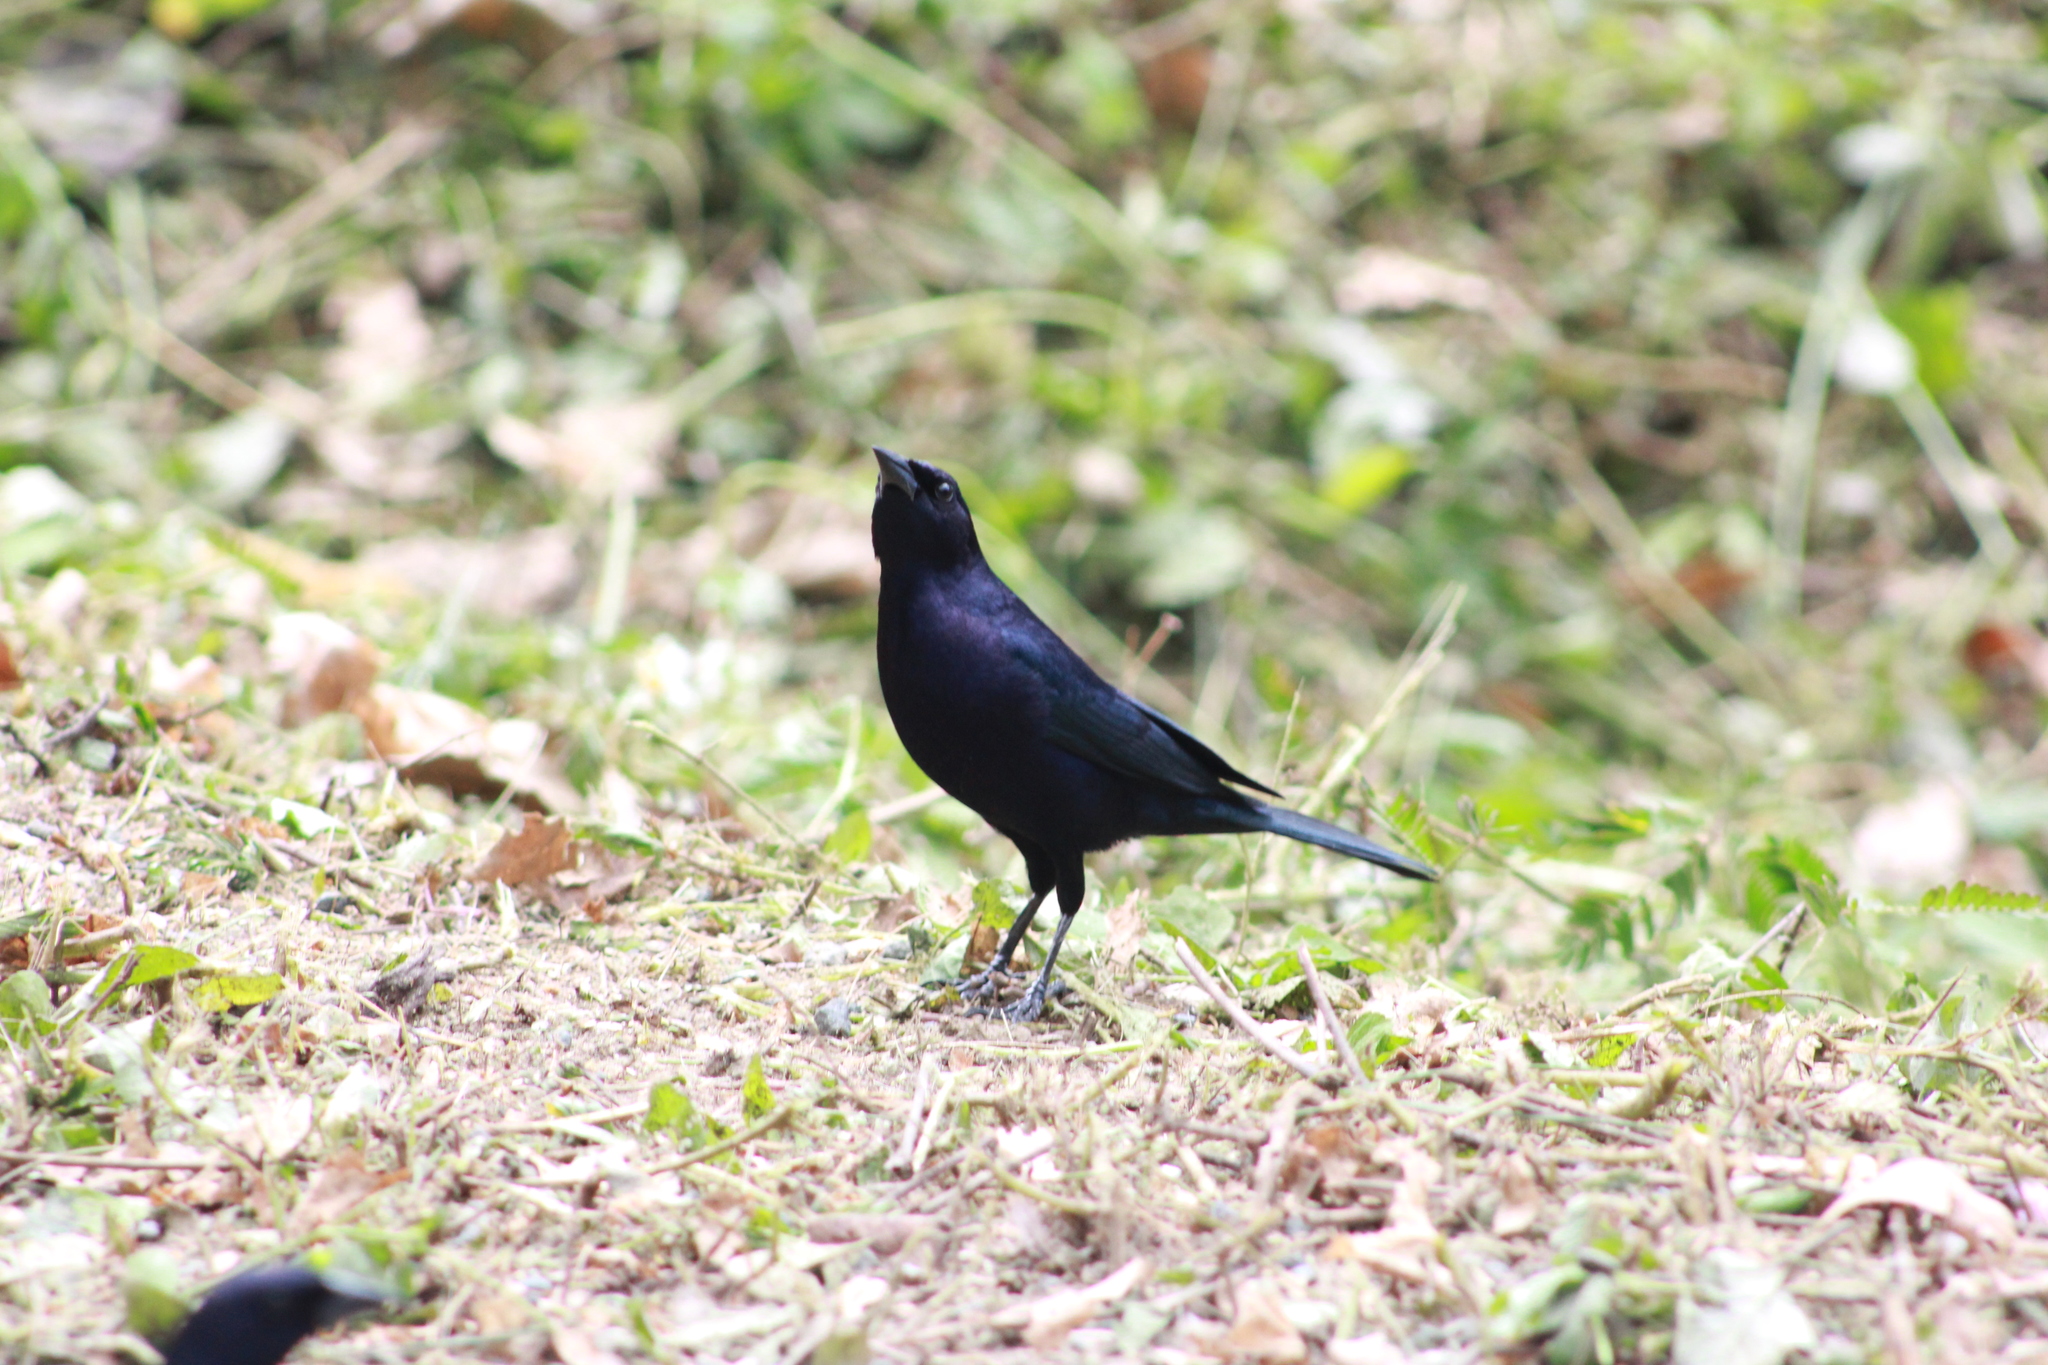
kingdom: Animalia
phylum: Chordata
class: Aves
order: Passeriformes
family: Icteridae
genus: Molothrus
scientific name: Molothrus bonariensis
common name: Shiny cowbird
